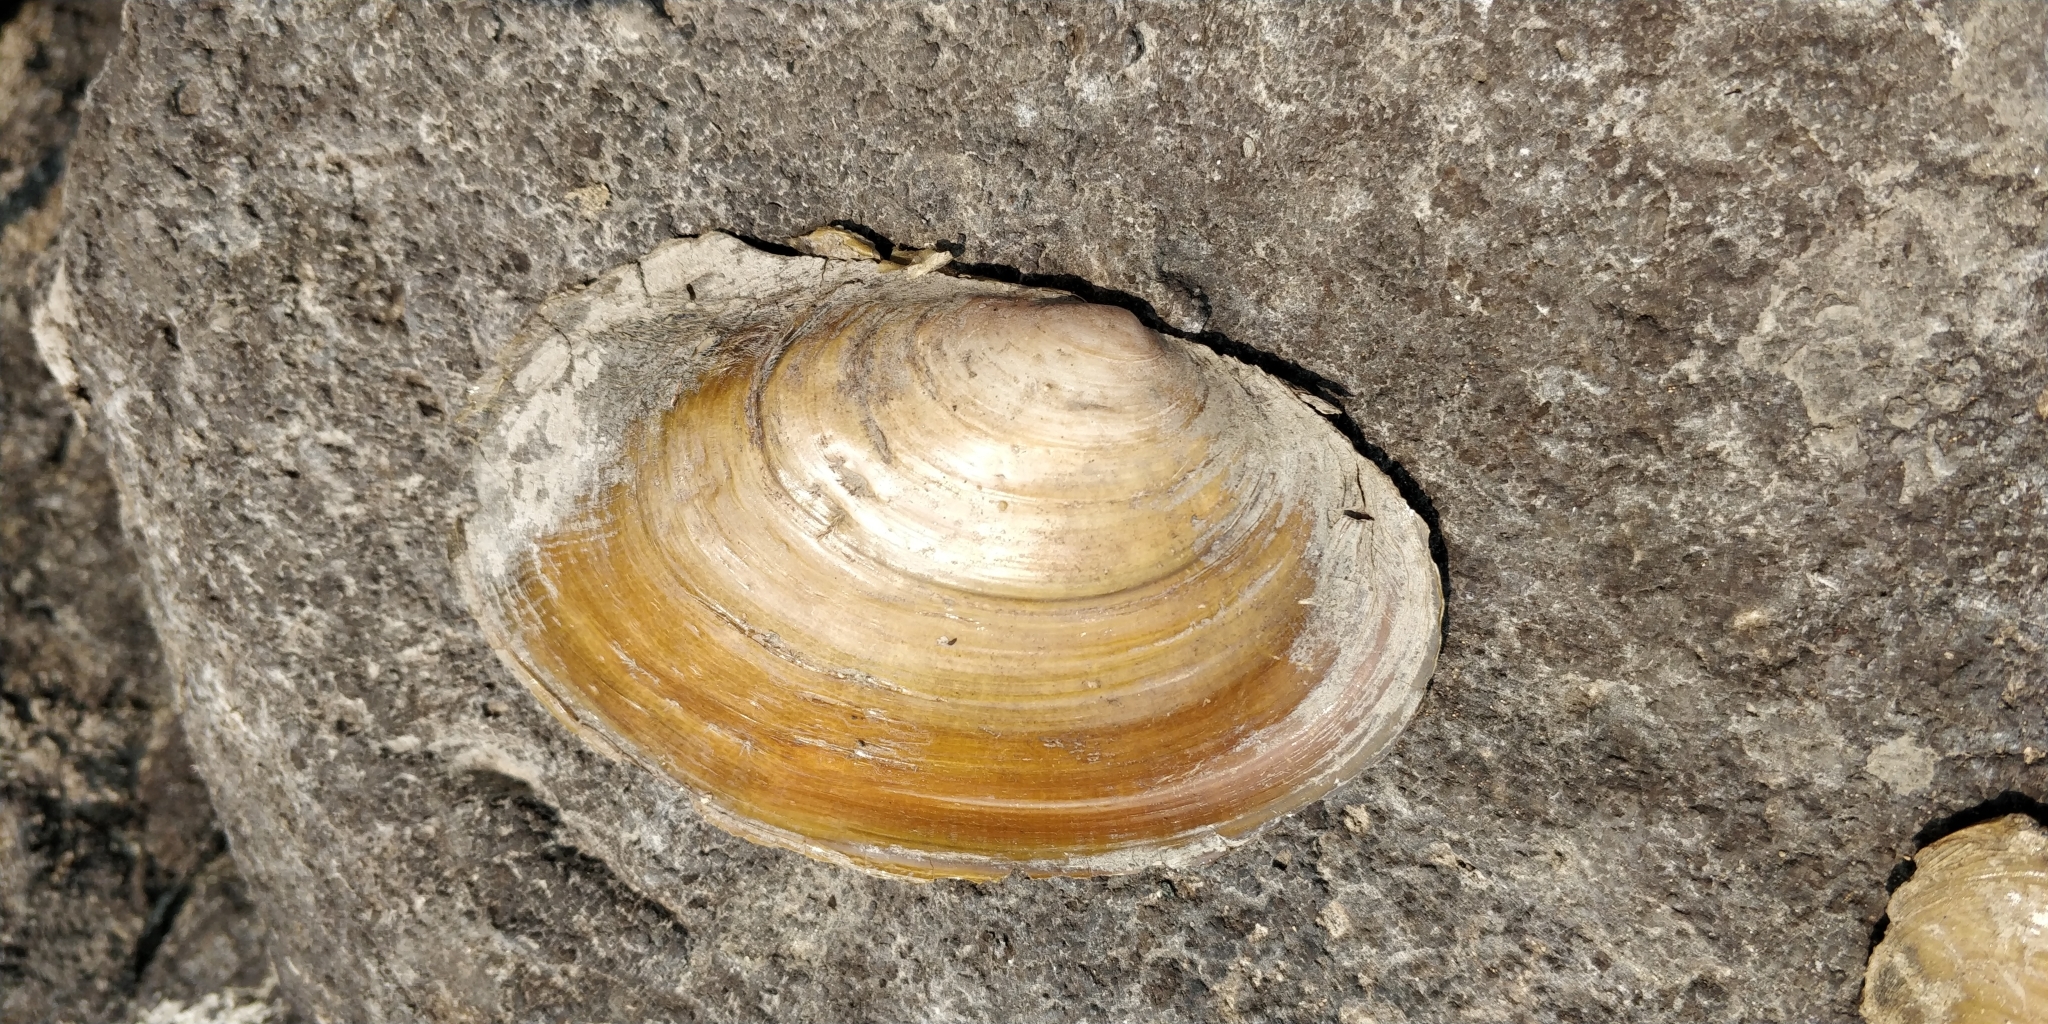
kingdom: Animalia
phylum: Mollusca
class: Bivalvia
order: Unionida
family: Unionidae
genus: Potamilus
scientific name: Potamilus ohiensis
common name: Pink papershell
